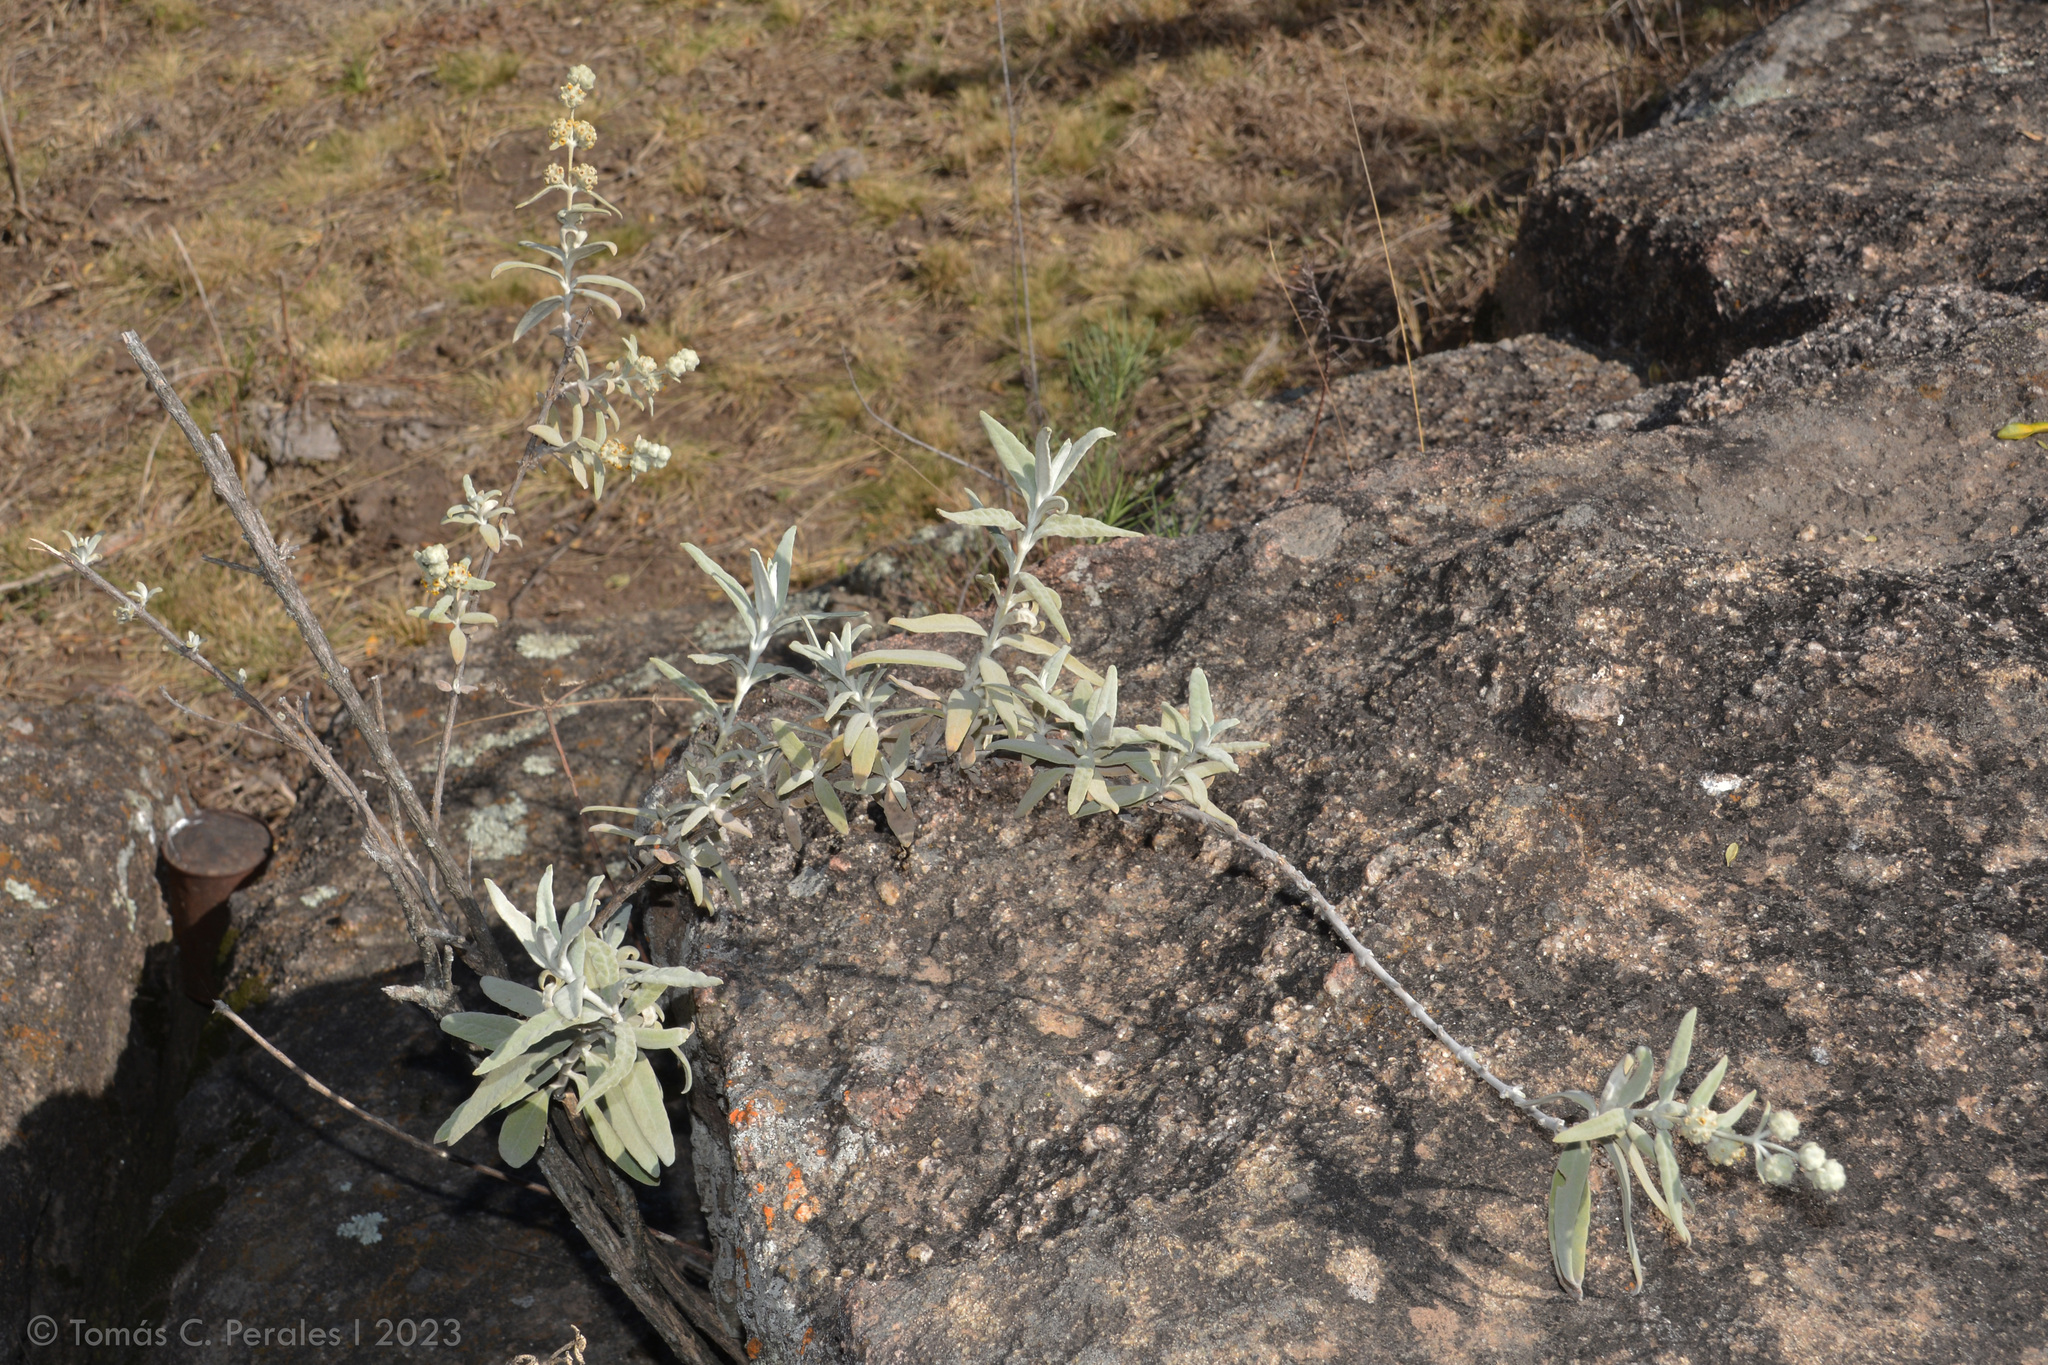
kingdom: Plantae
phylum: Tracheophyta
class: Magnoliopsida
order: Lamiales
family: Scrophulariaceae
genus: Buddleja
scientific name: Buddleja cordobensis
